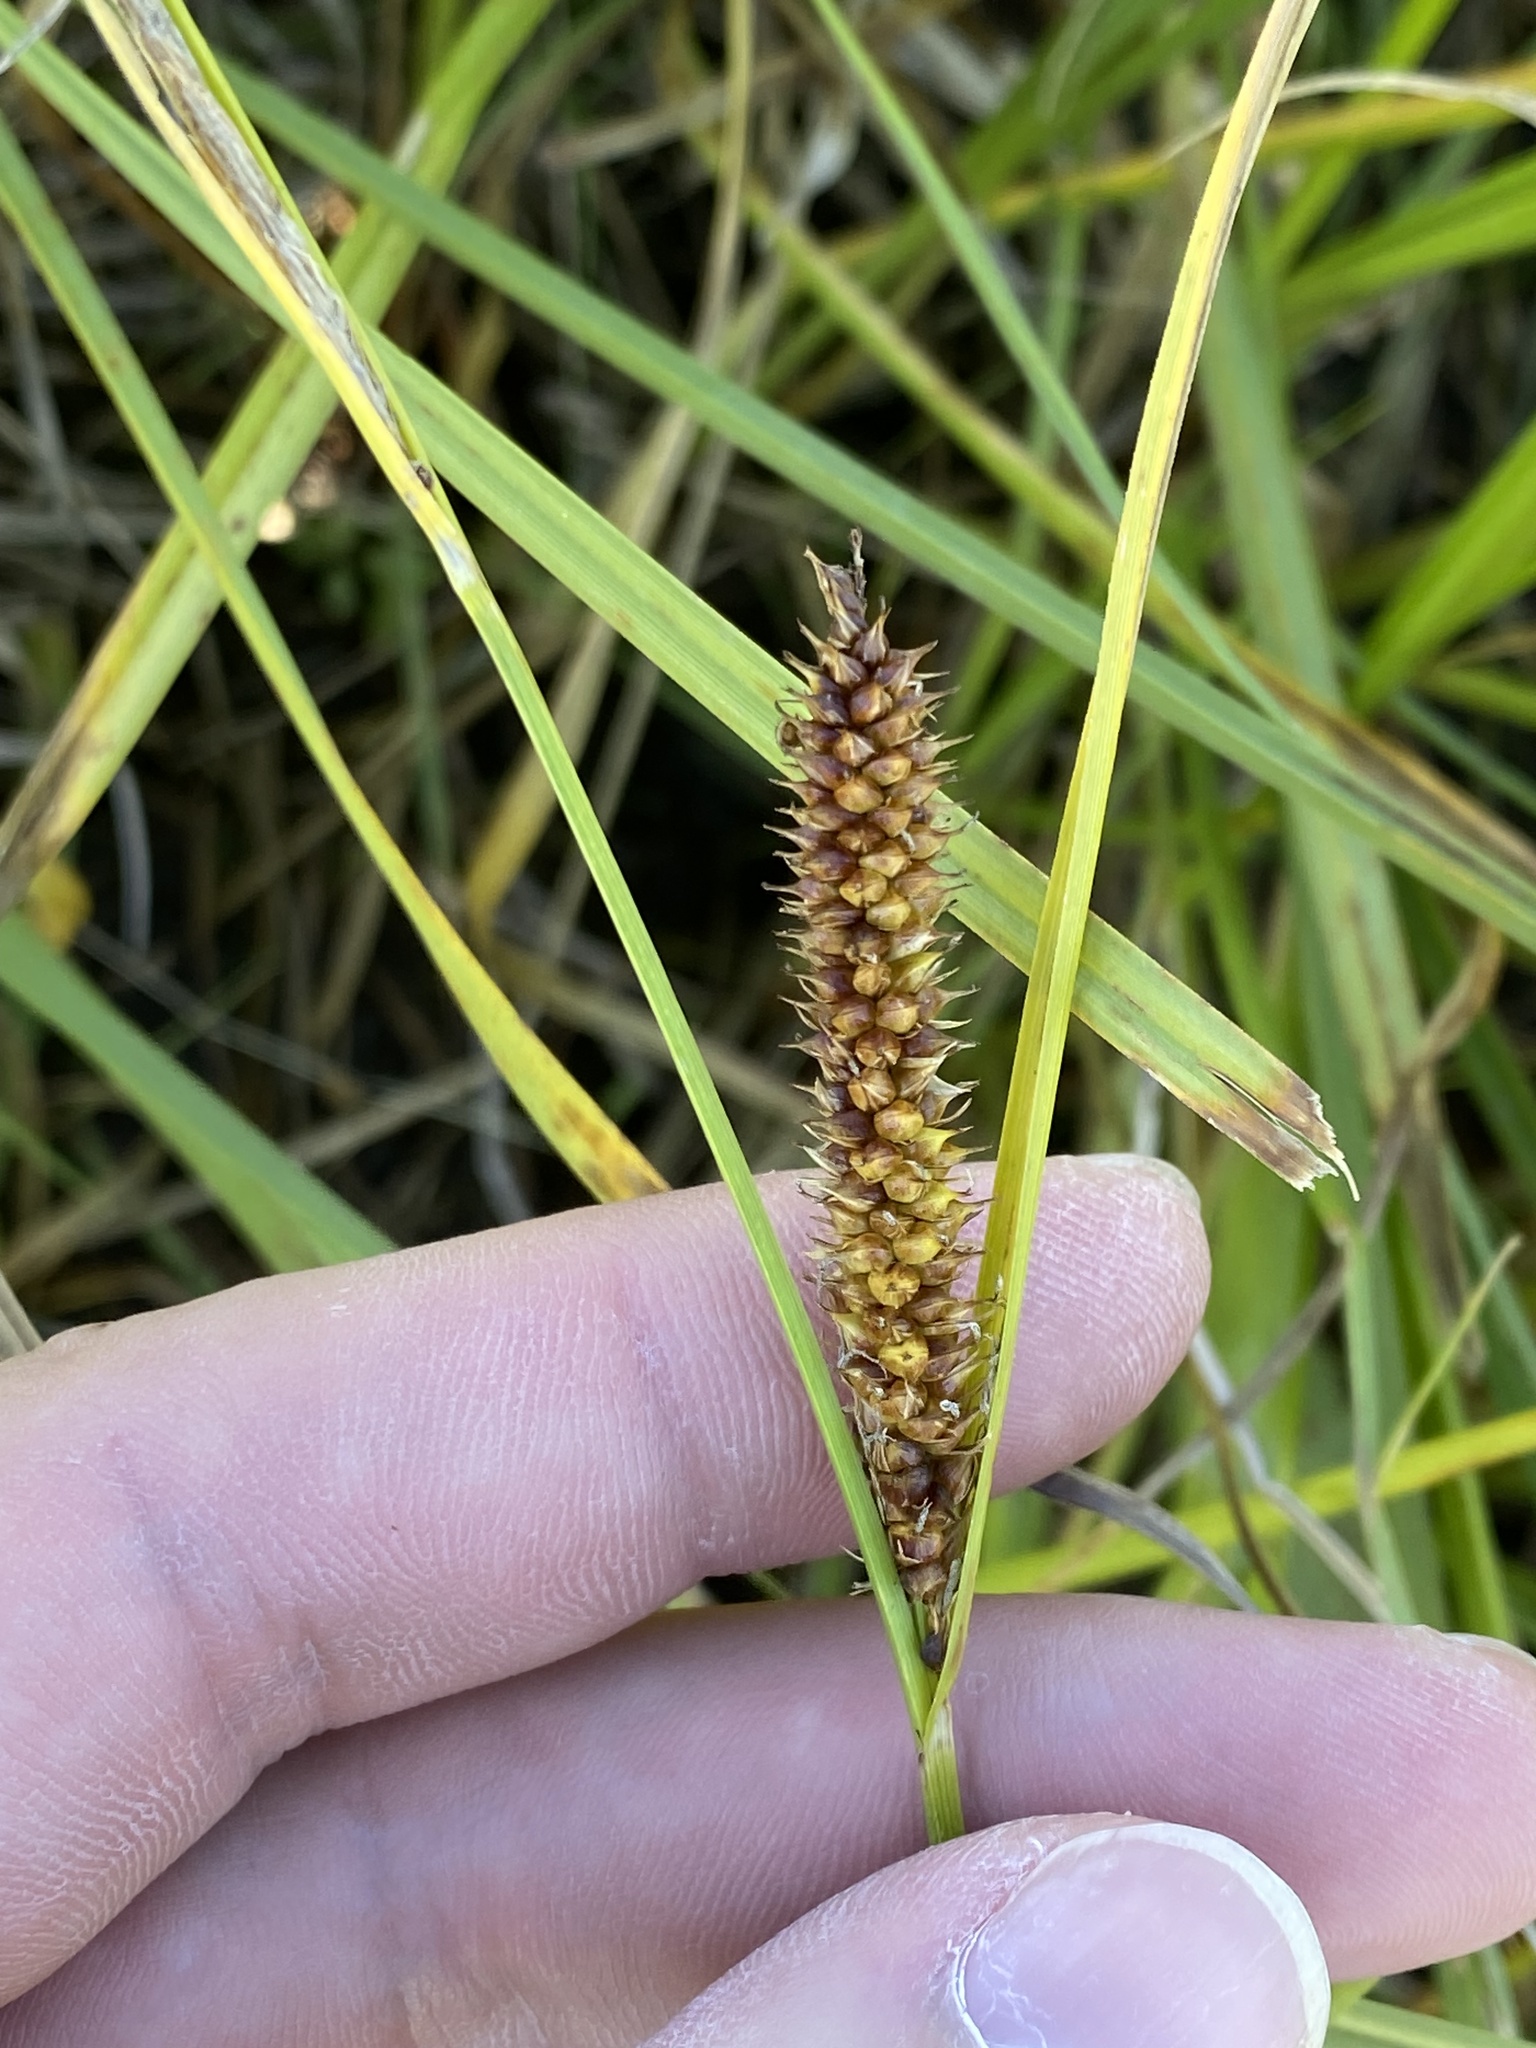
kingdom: Plantae
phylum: Tracheophyta
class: Liliopsida
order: Poales
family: Cyperaceae
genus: Carex
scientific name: Carex utriculata
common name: Beaked sedge
